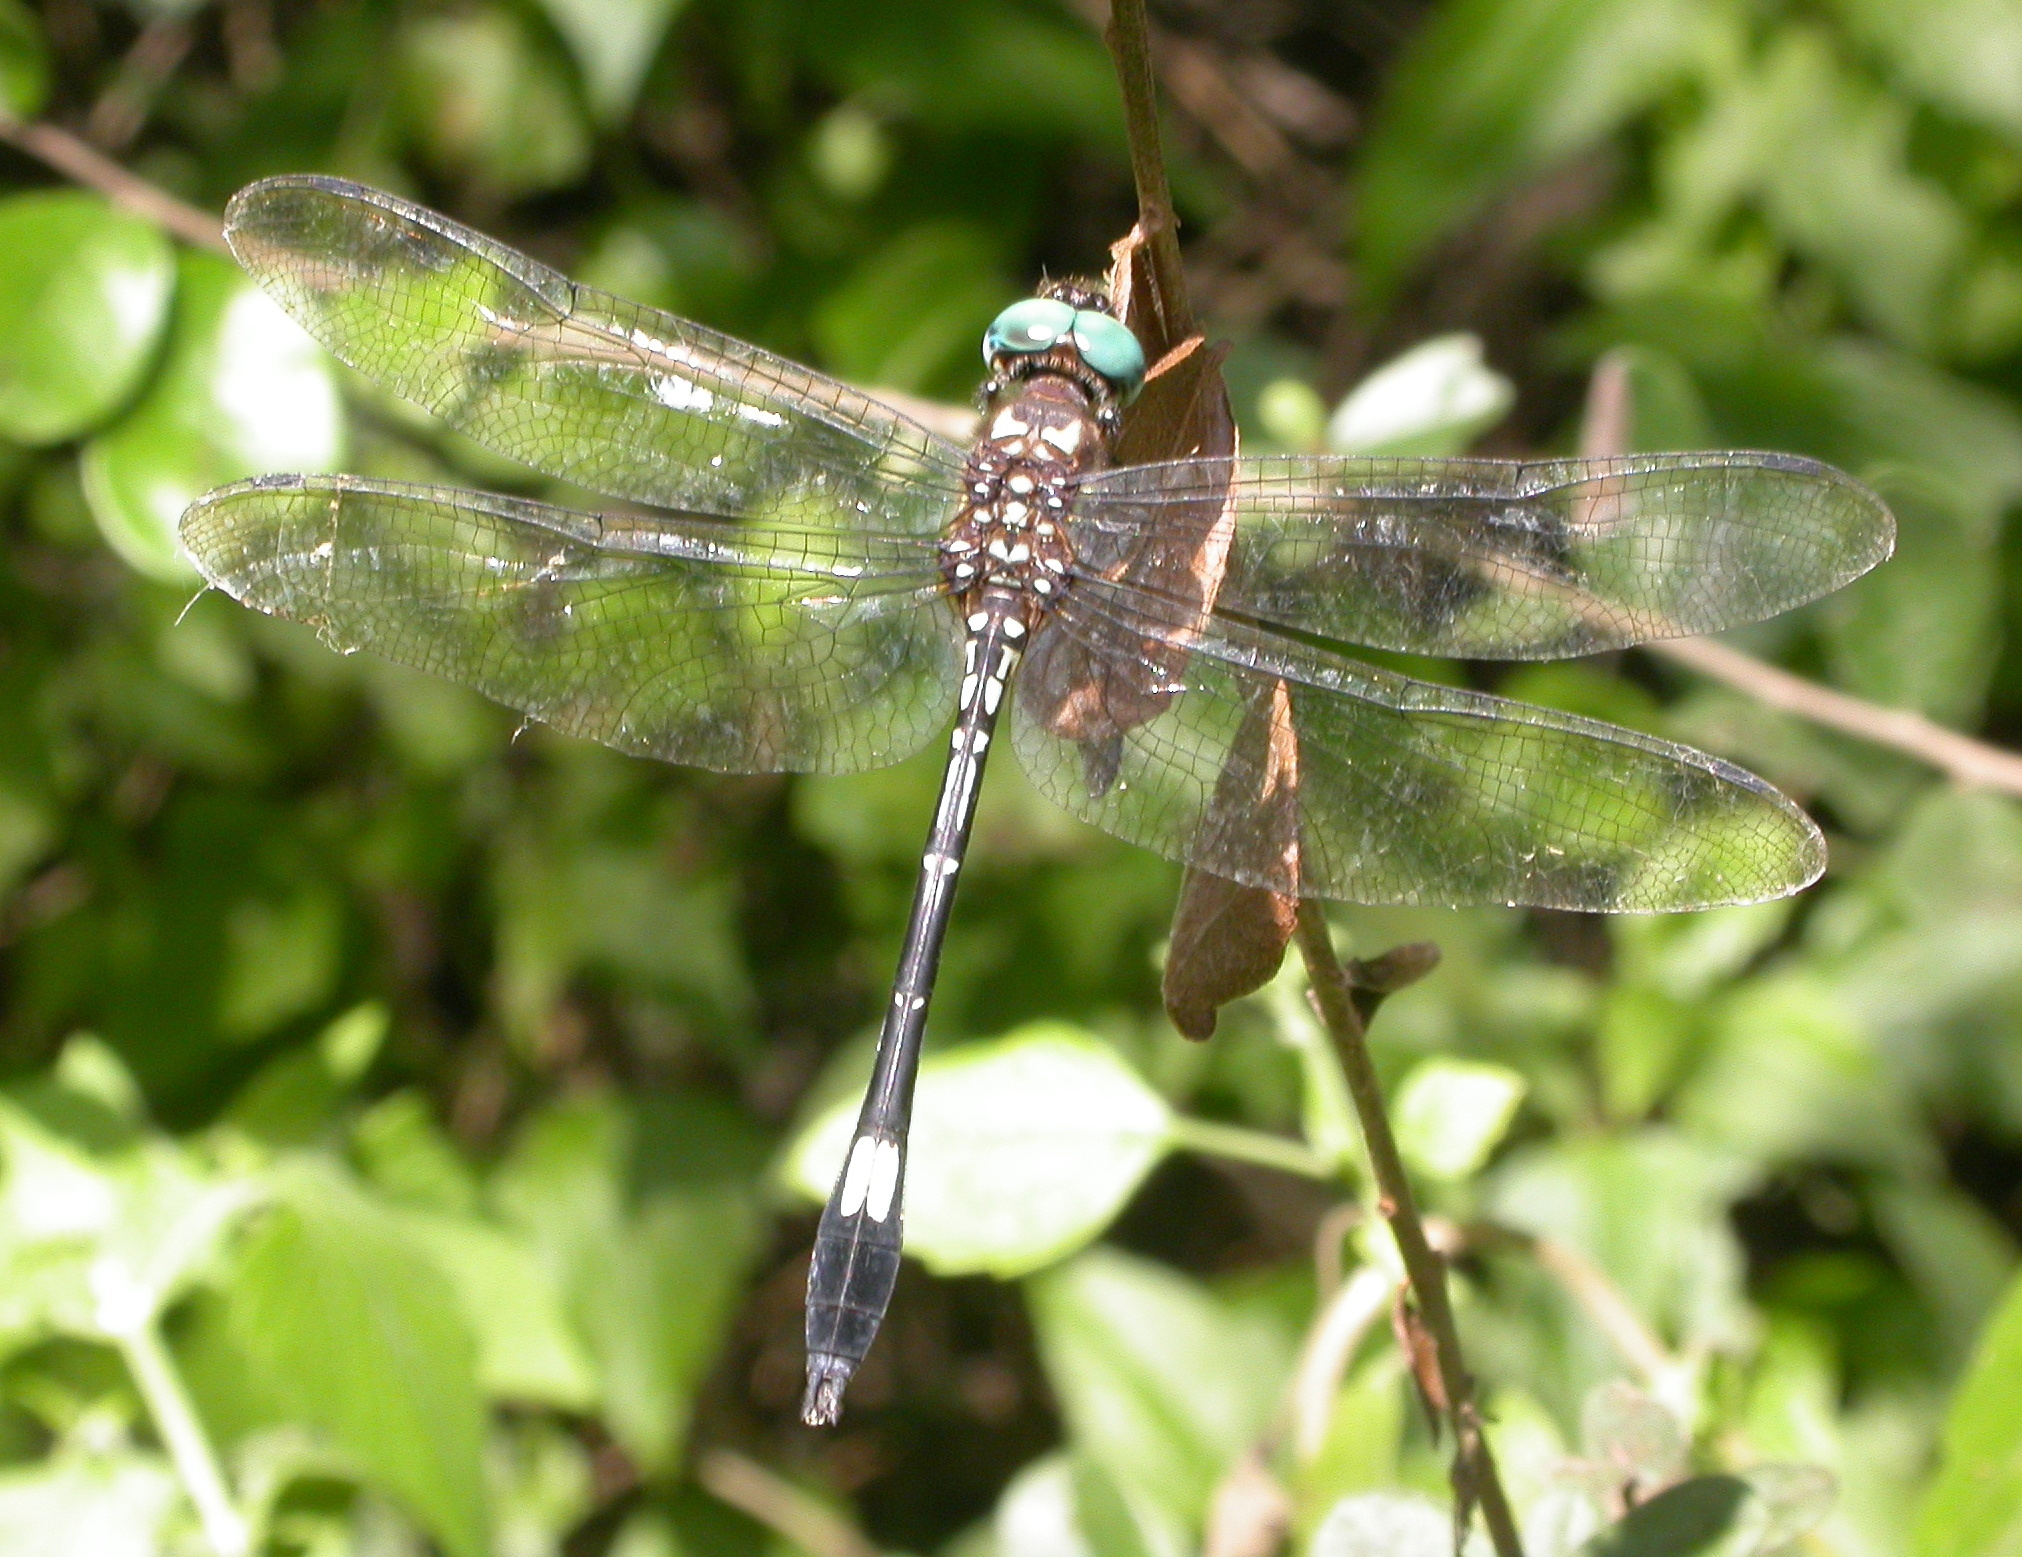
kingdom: Animalia
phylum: Arthropoda
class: Insecta
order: Odonata
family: Libellulidae
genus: Brechmorhoga
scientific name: Brechmorhoga mendax
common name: Pale-faced clubskimmer
